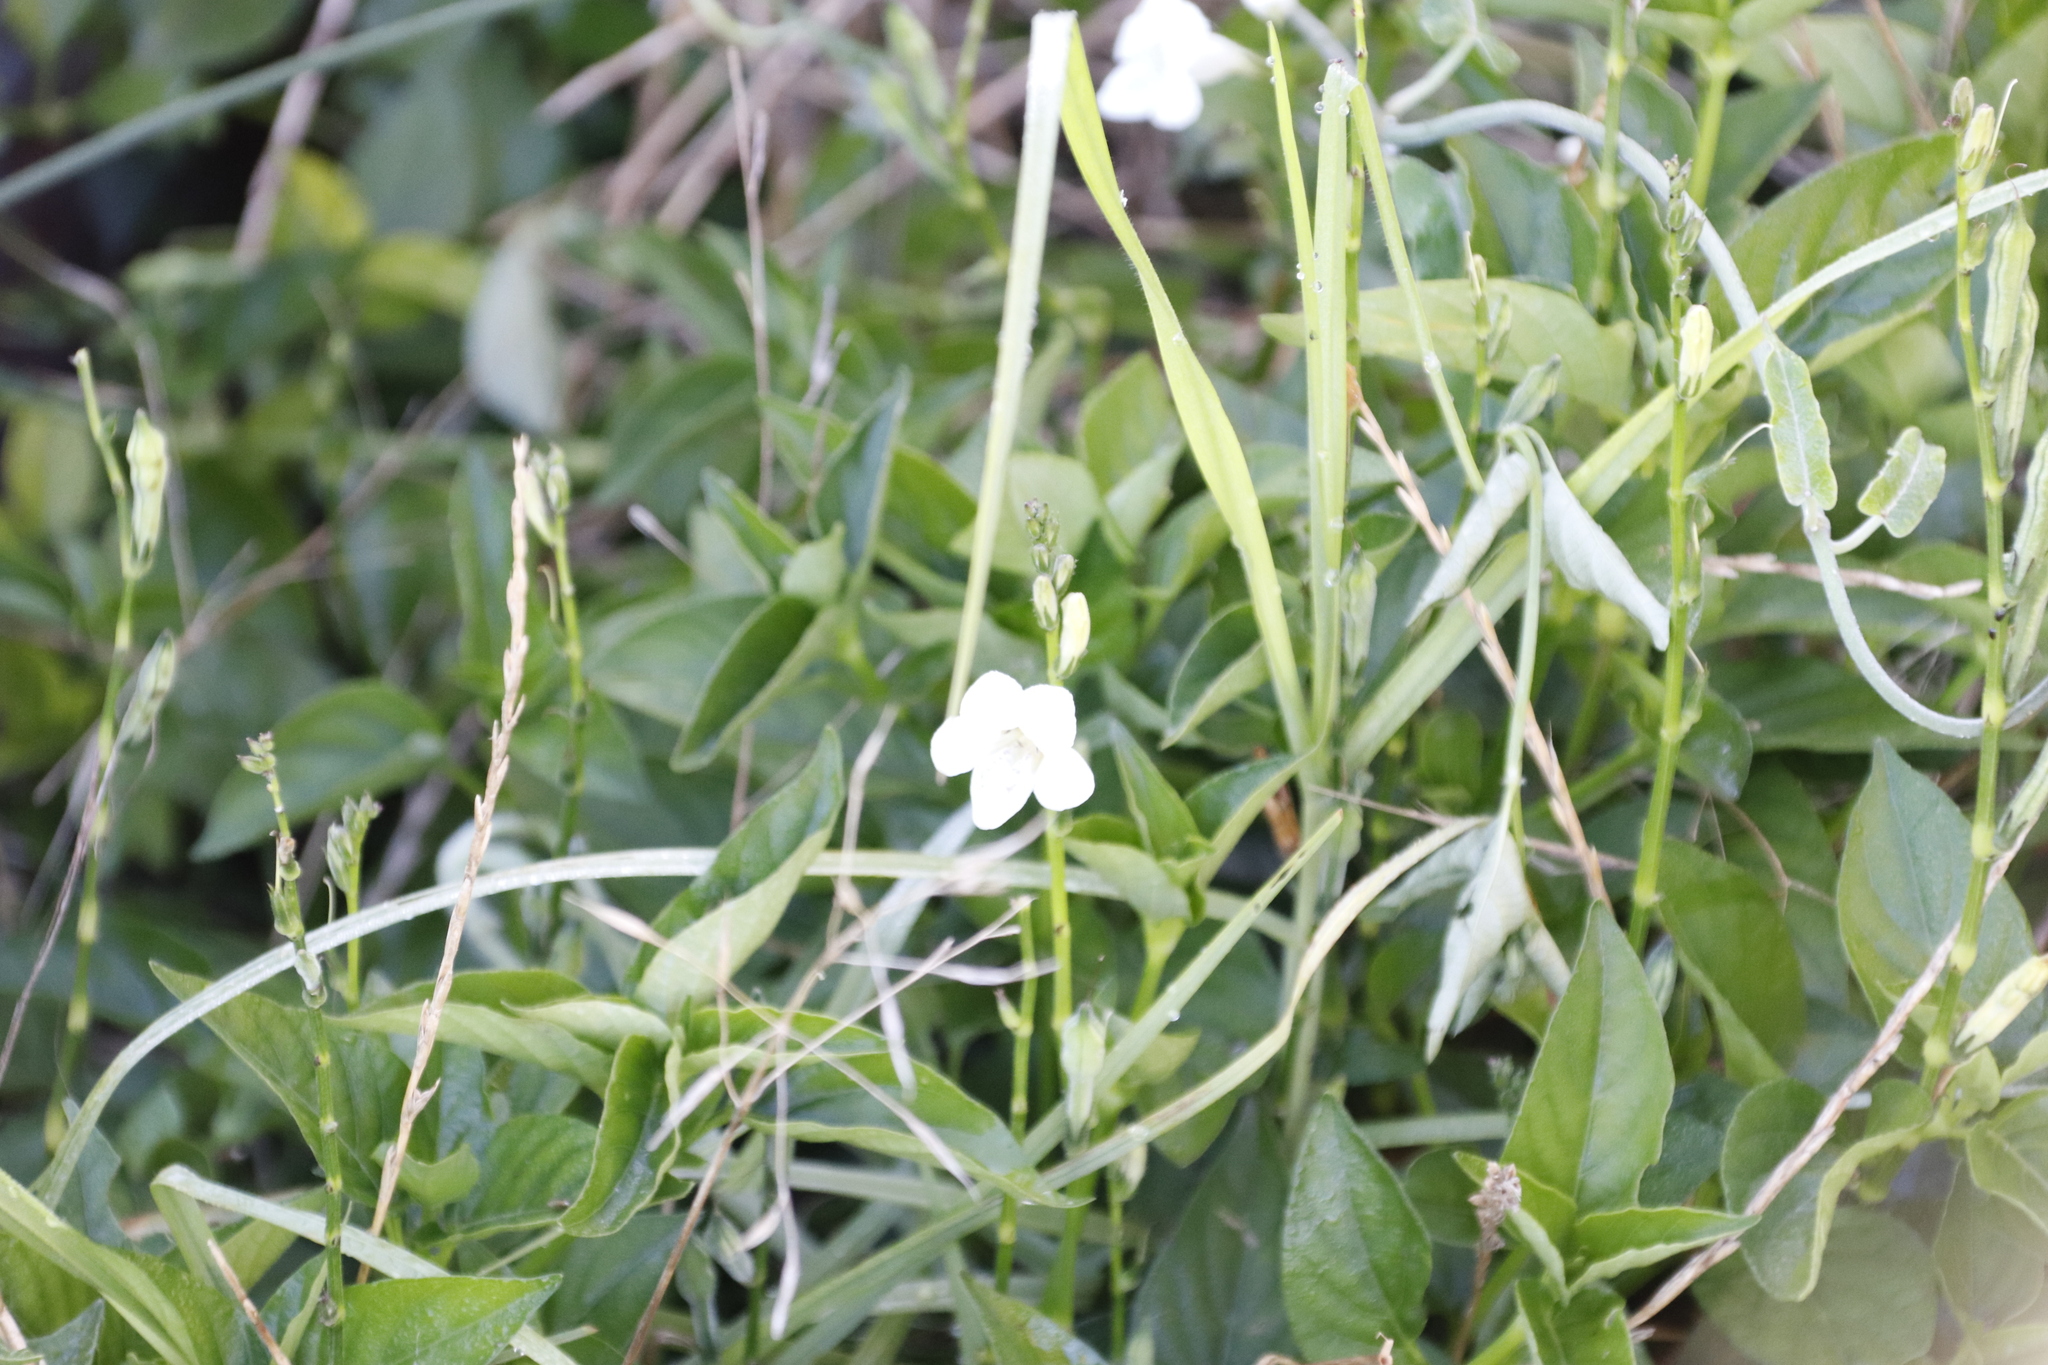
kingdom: Plantae
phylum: Tracheophyta
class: Magnoliopsida
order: Lamiales
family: Acanthaceae
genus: Asystasia
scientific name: Asystasia intrusa
